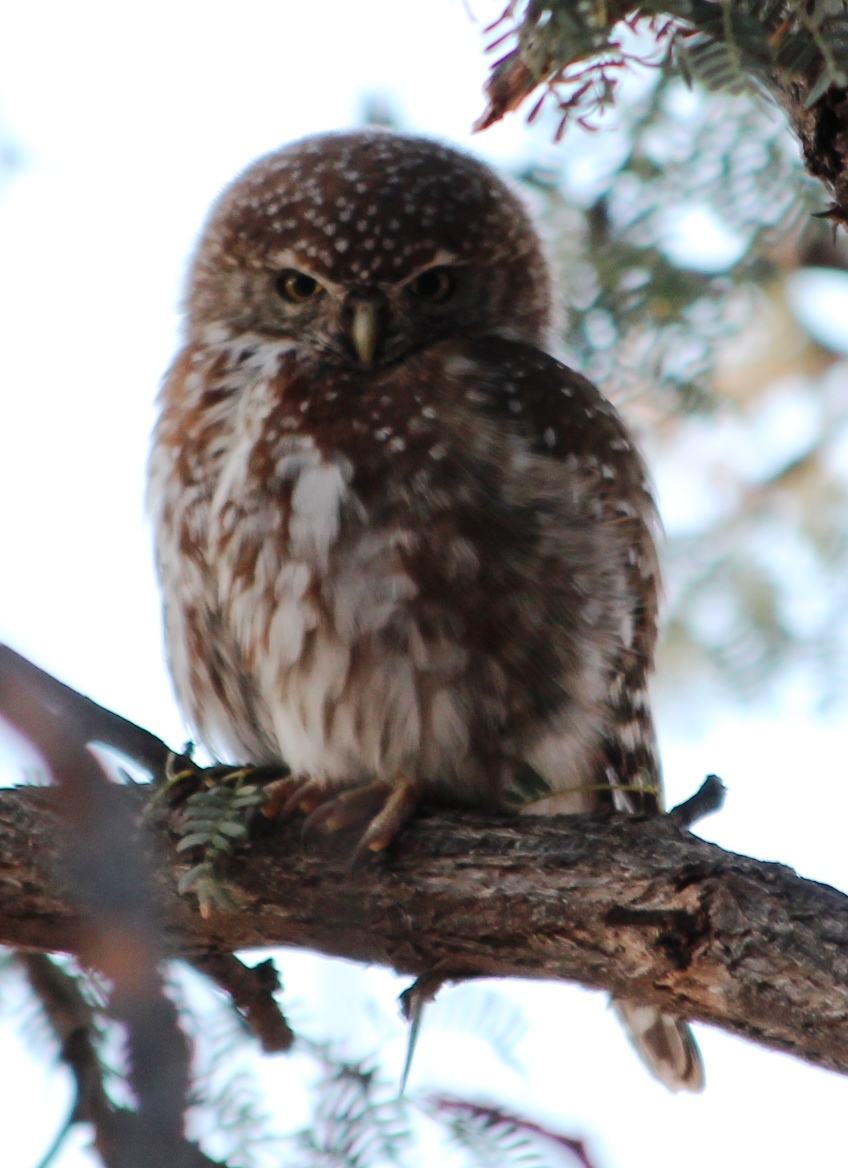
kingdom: Animalia
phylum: Chordata
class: Aves
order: Strigiformes
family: Strigidae
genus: Glaucidium
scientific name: Glaucidium perlatum
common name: Pearl-spotted owlet
